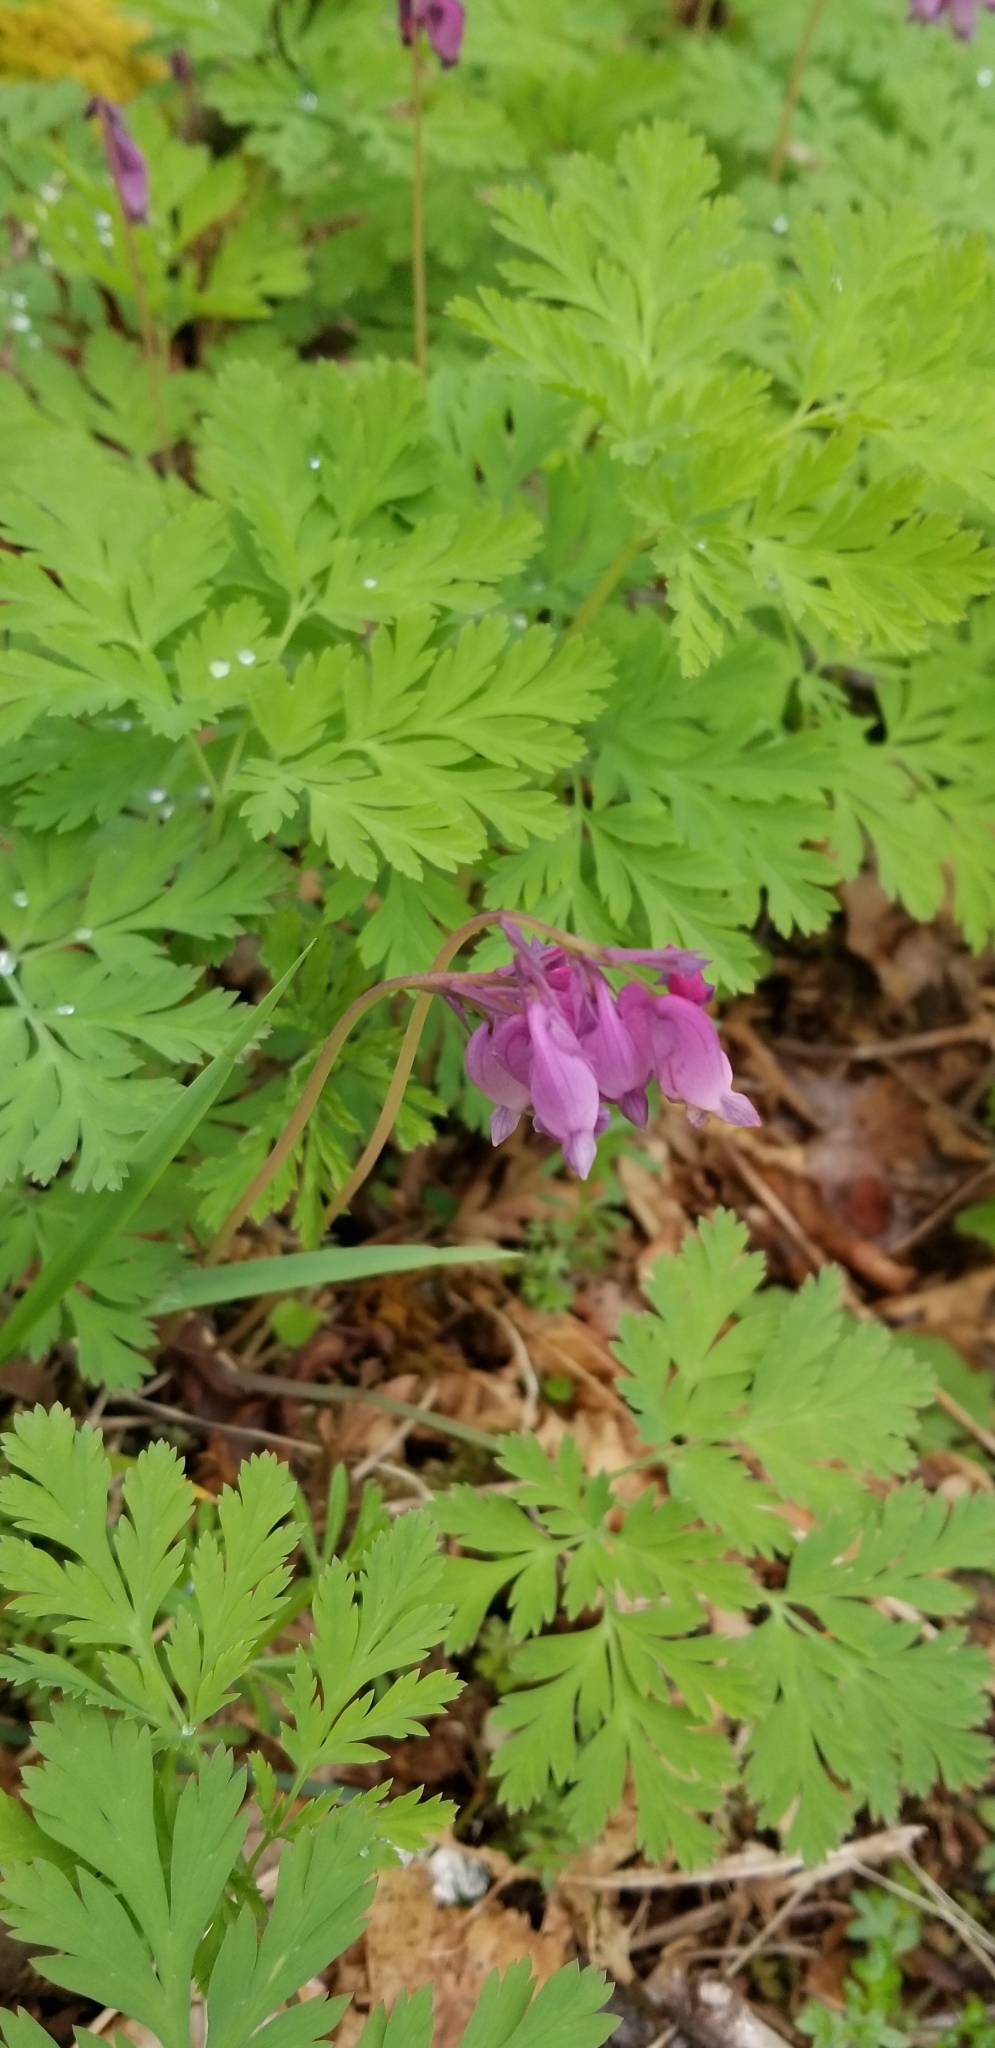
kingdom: Plantae
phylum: Tracheophyta
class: Magnoliopsida
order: Ranunculales
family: Papaveraceae
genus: Dicentra
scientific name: Dicentra formosa
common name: Bleeding-heart
